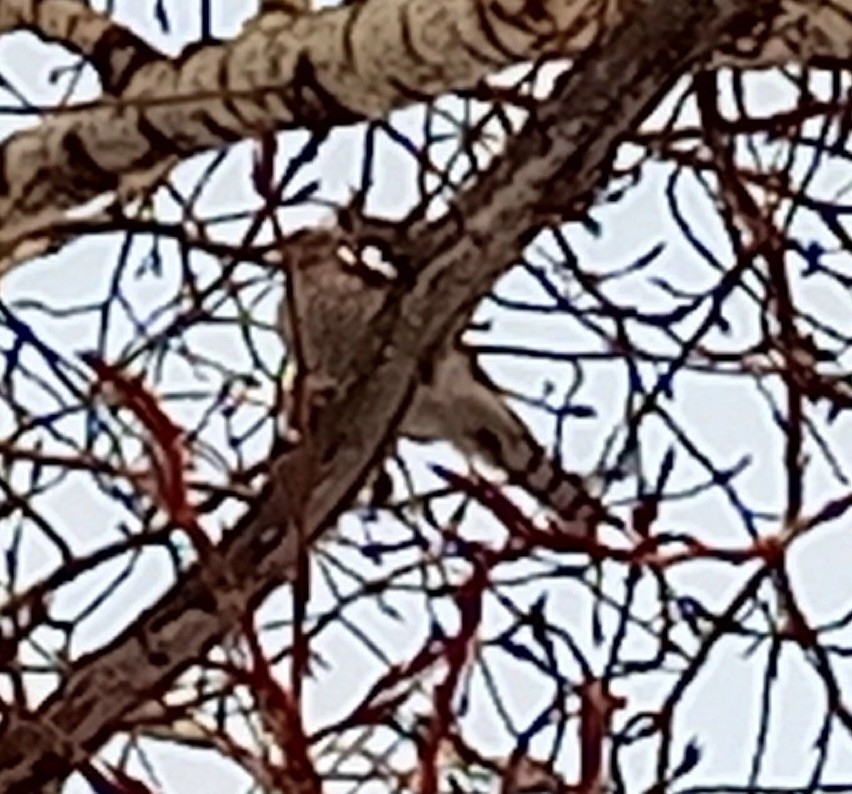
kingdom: Animalia
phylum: Chordata
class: Aves
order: Accipitriformes
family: Accipitridae
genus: Accipiter
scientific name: Accipiter nisus
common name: Eurasian sparrowhawk
